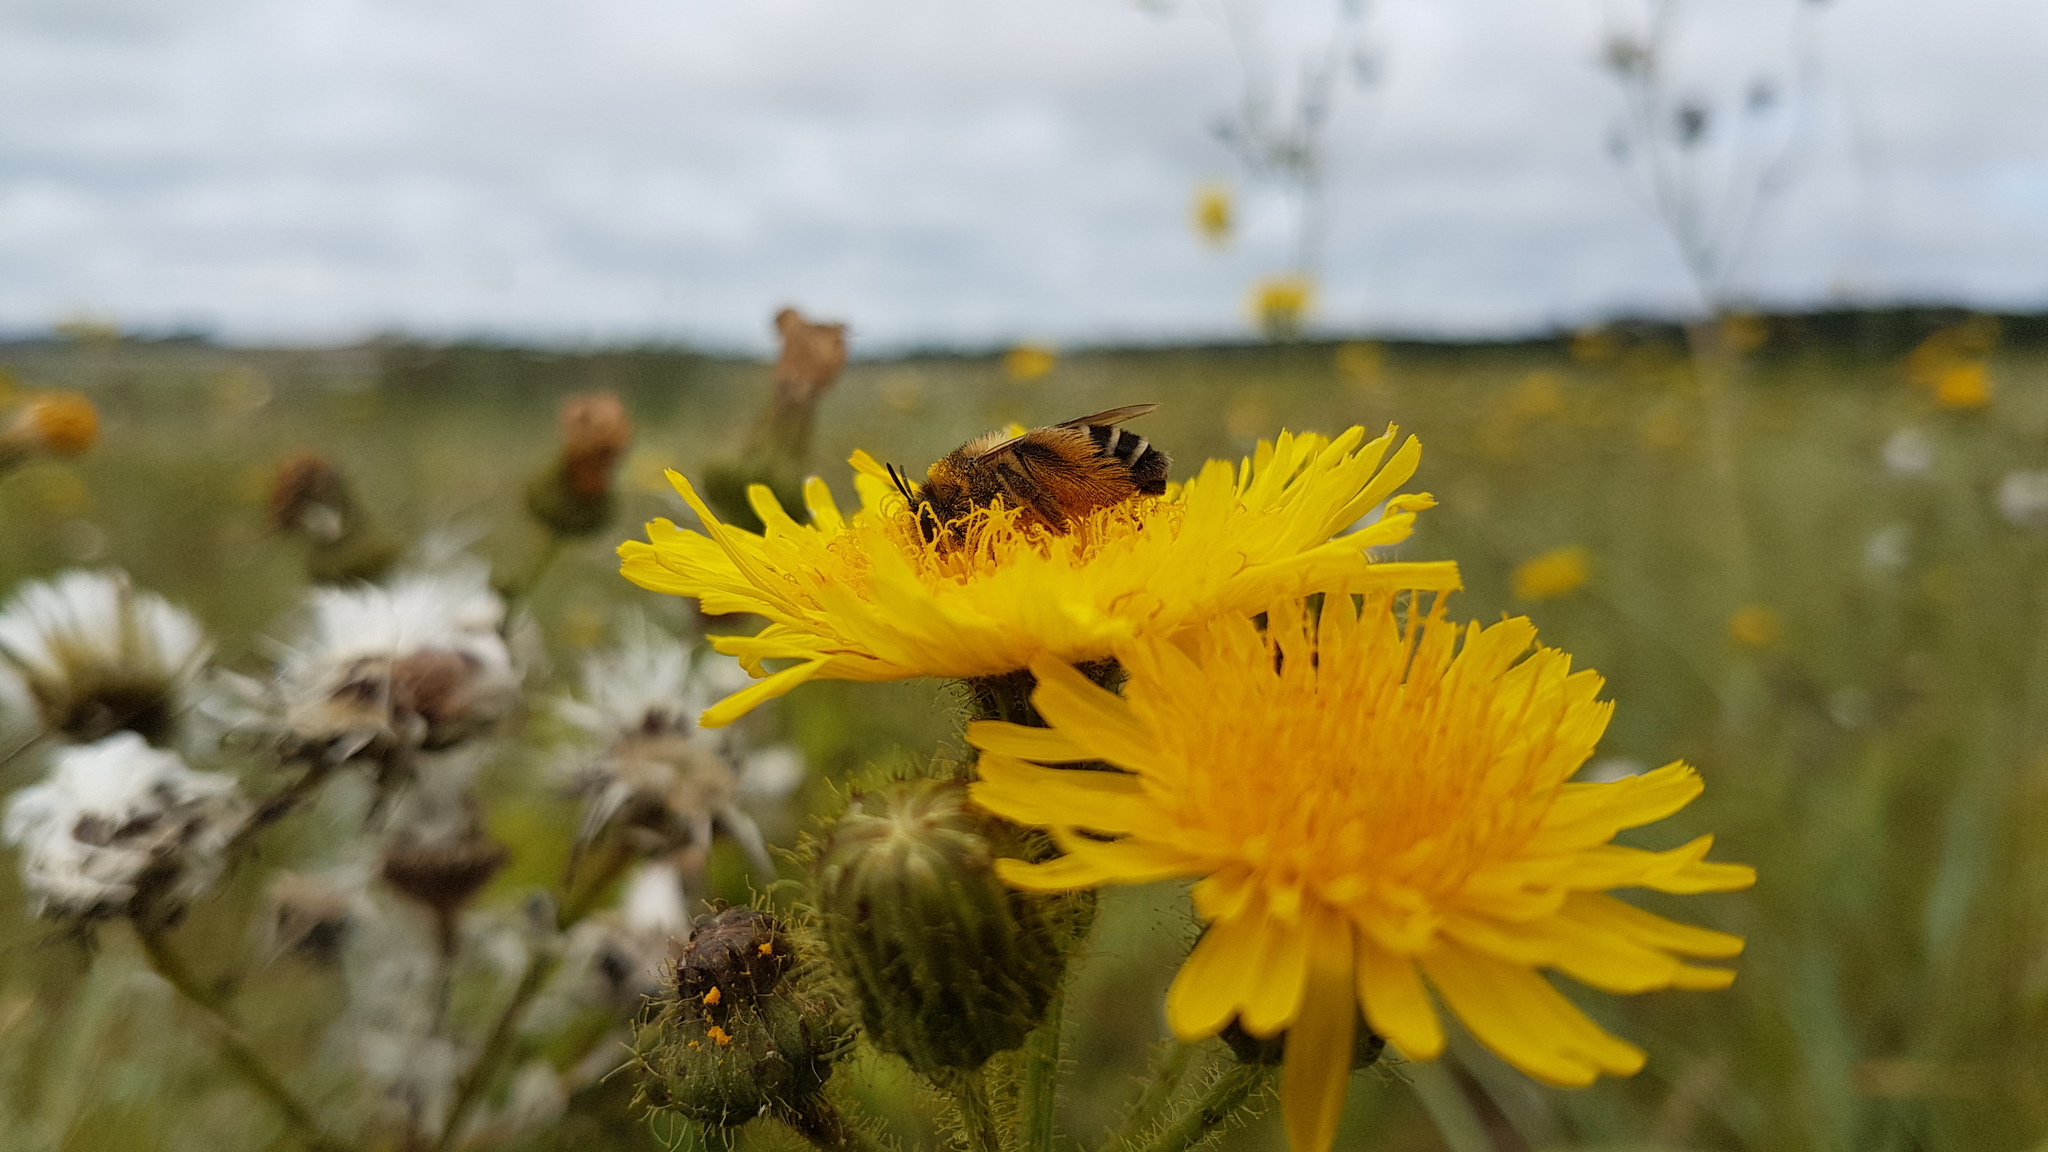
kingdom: Animalia
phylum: Arthropoda
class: Insecta
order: Hymenoptera
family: Melittidae
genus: Dasypoda
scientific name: Dasypoda hirtipes
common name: Pantaloon bee
